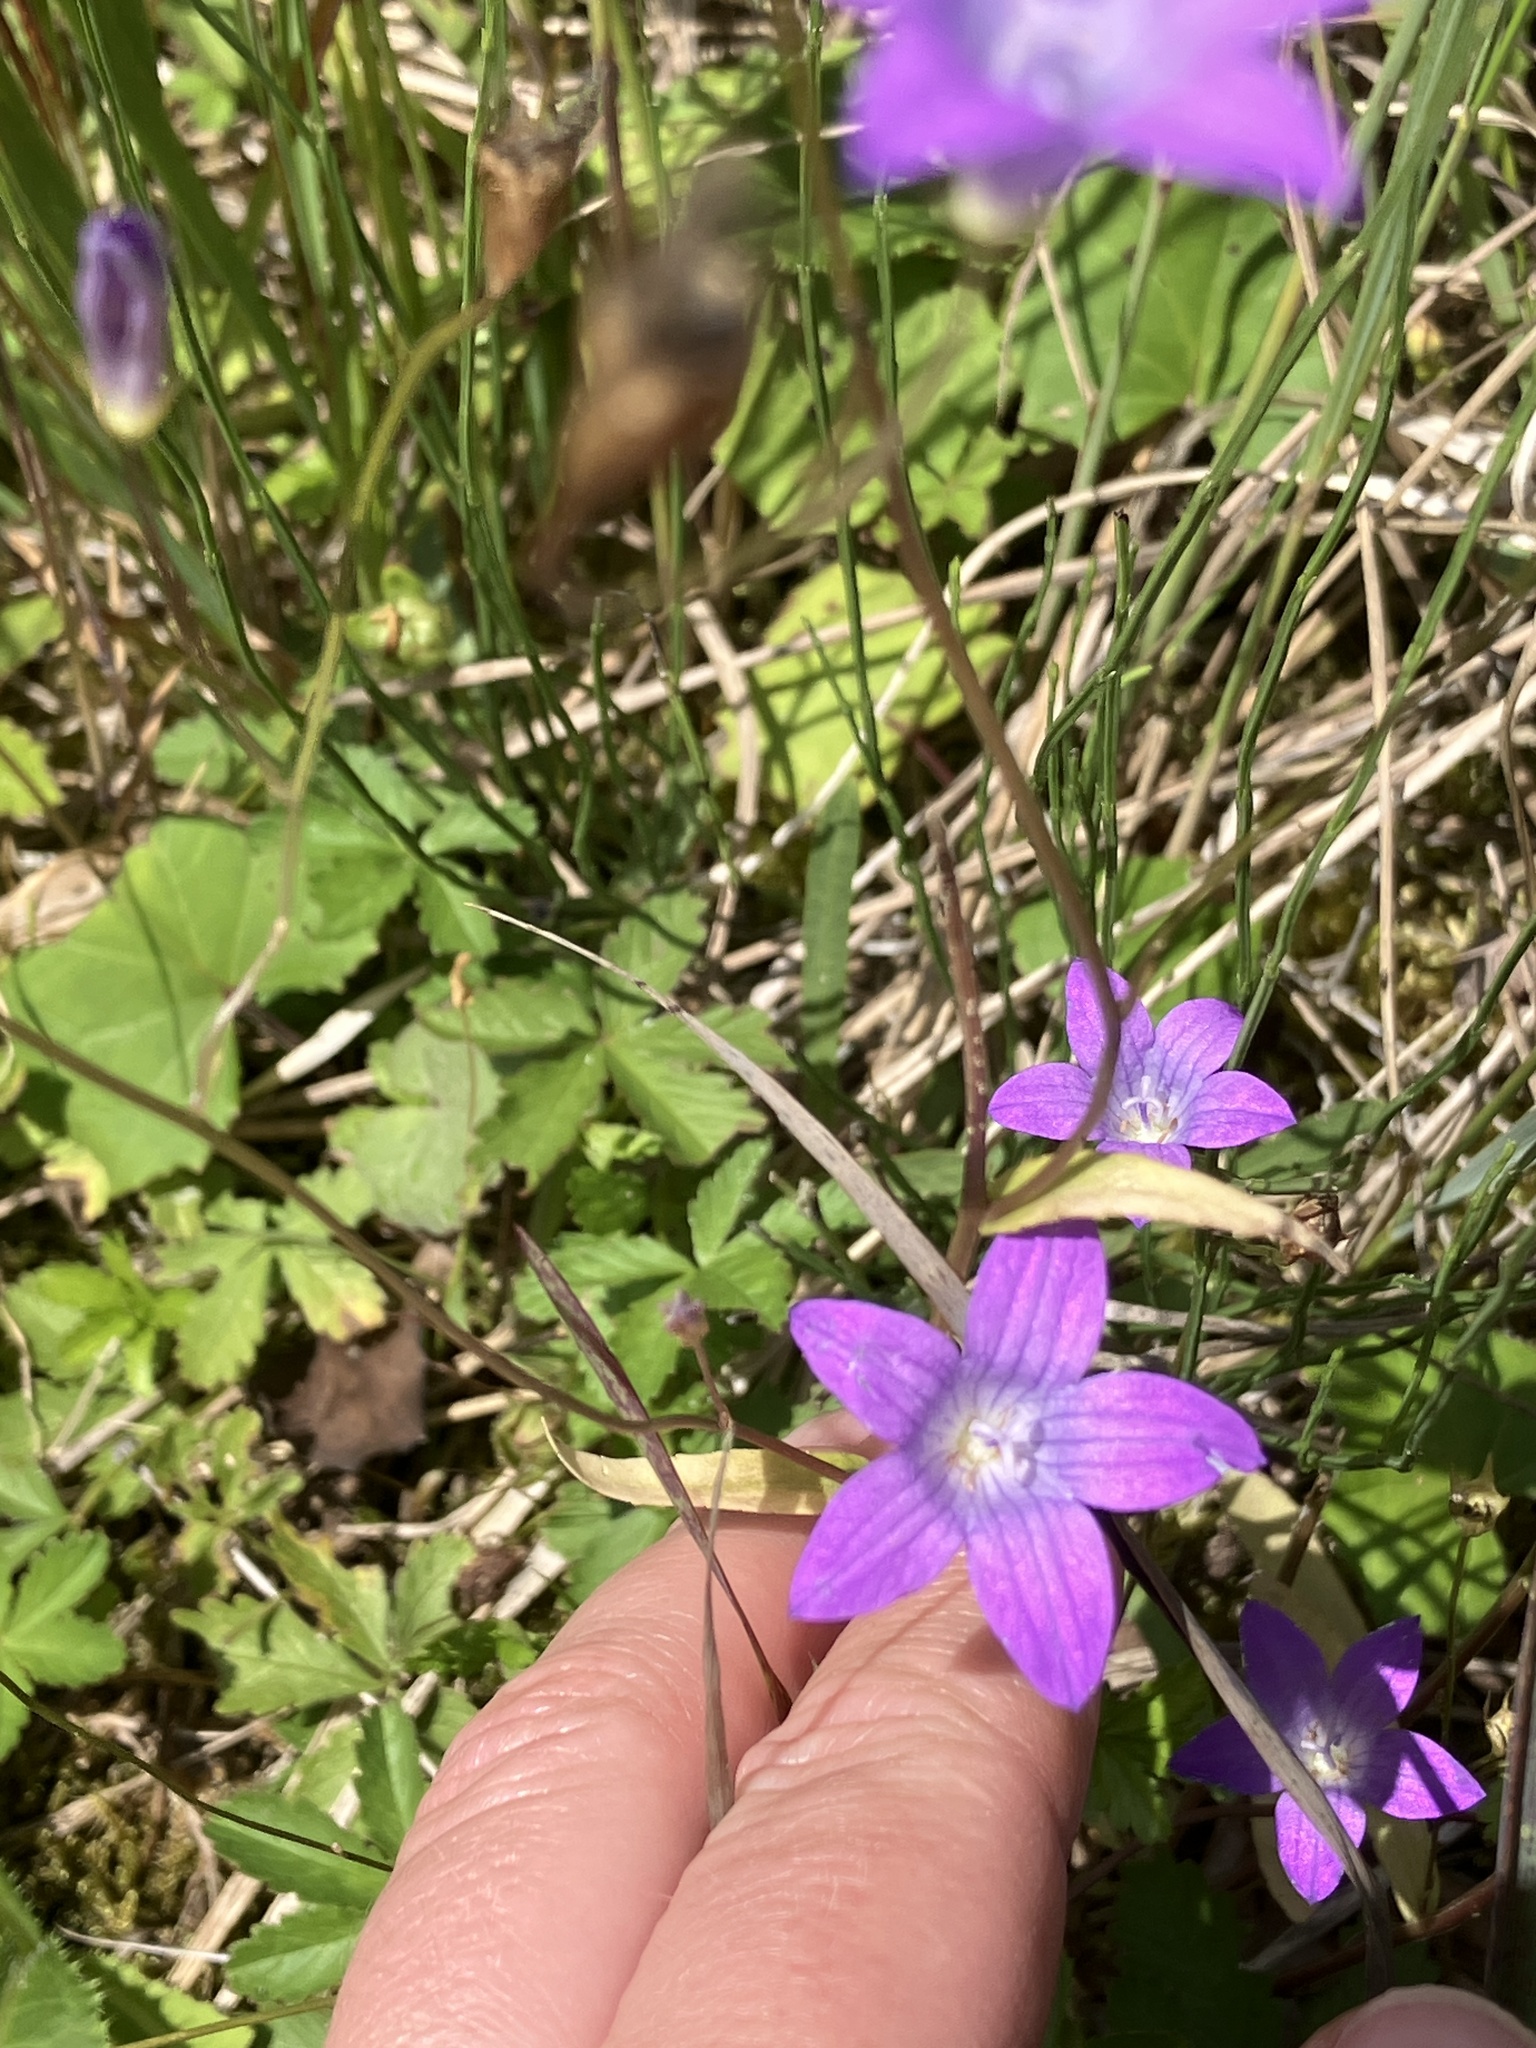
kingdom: Plantae
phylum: Tracheophyta
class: Magnoliopsida
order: Asterales
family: Campanulaceae
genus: Campanula
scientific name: Campanula patula
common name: Spreading bellflower
